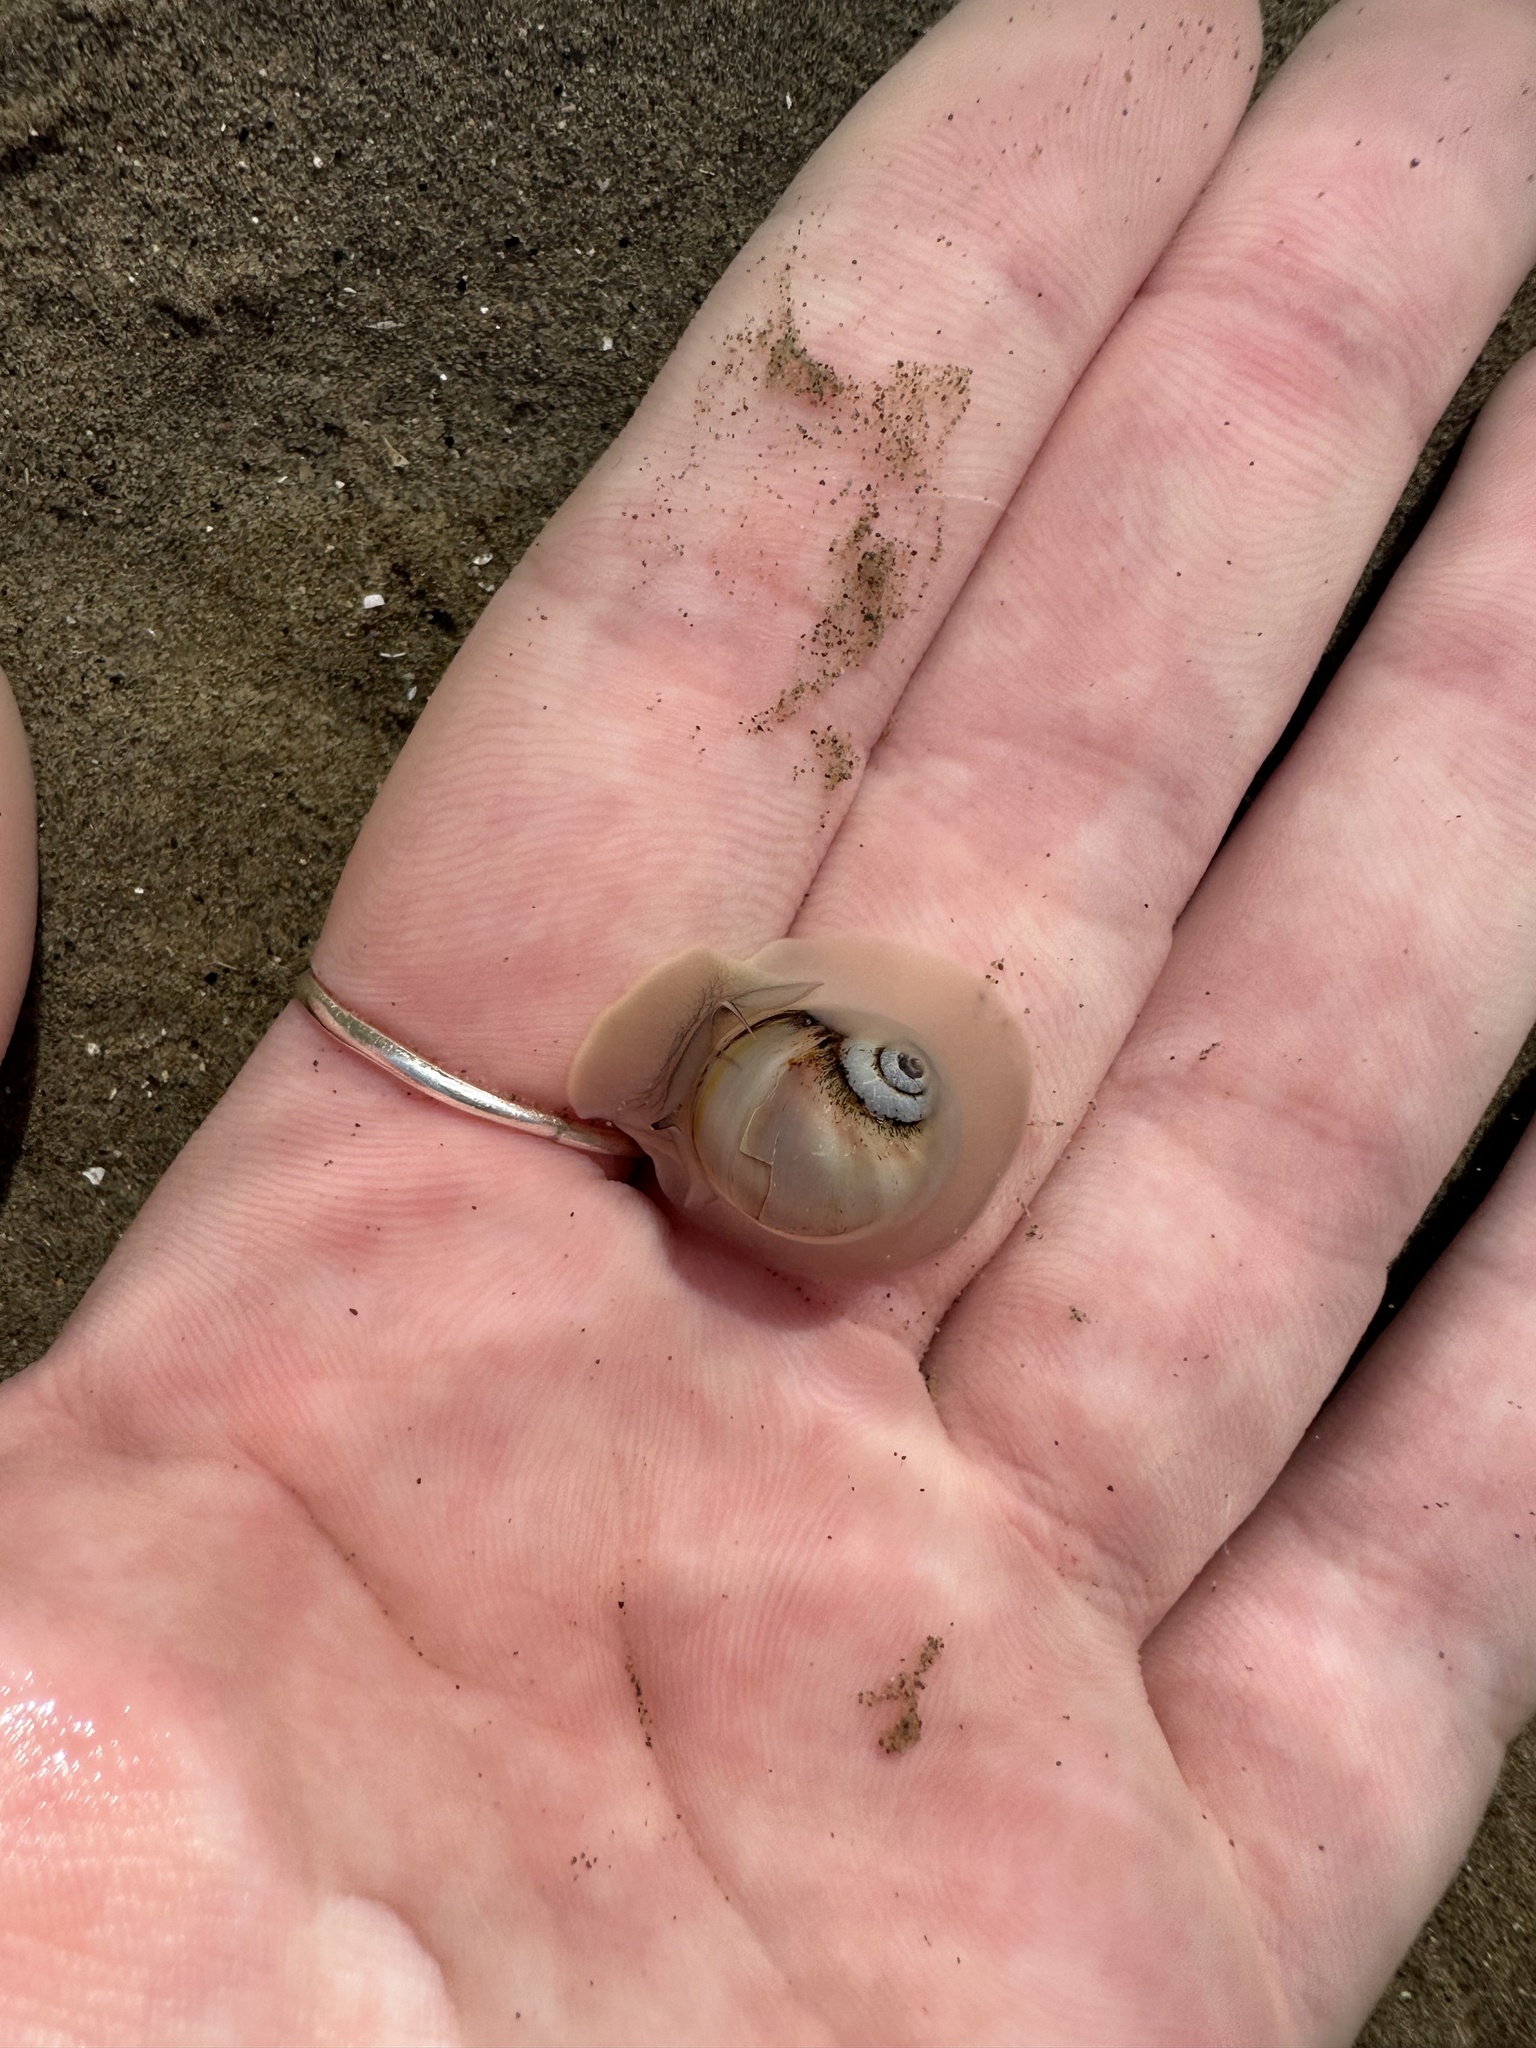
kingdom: Animalia
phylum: Mollusca
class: Gastropoda
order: Littorinimorpha
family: Naticidae
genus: Euspira
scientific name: Euspira heros
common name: Common northern moonsnail
